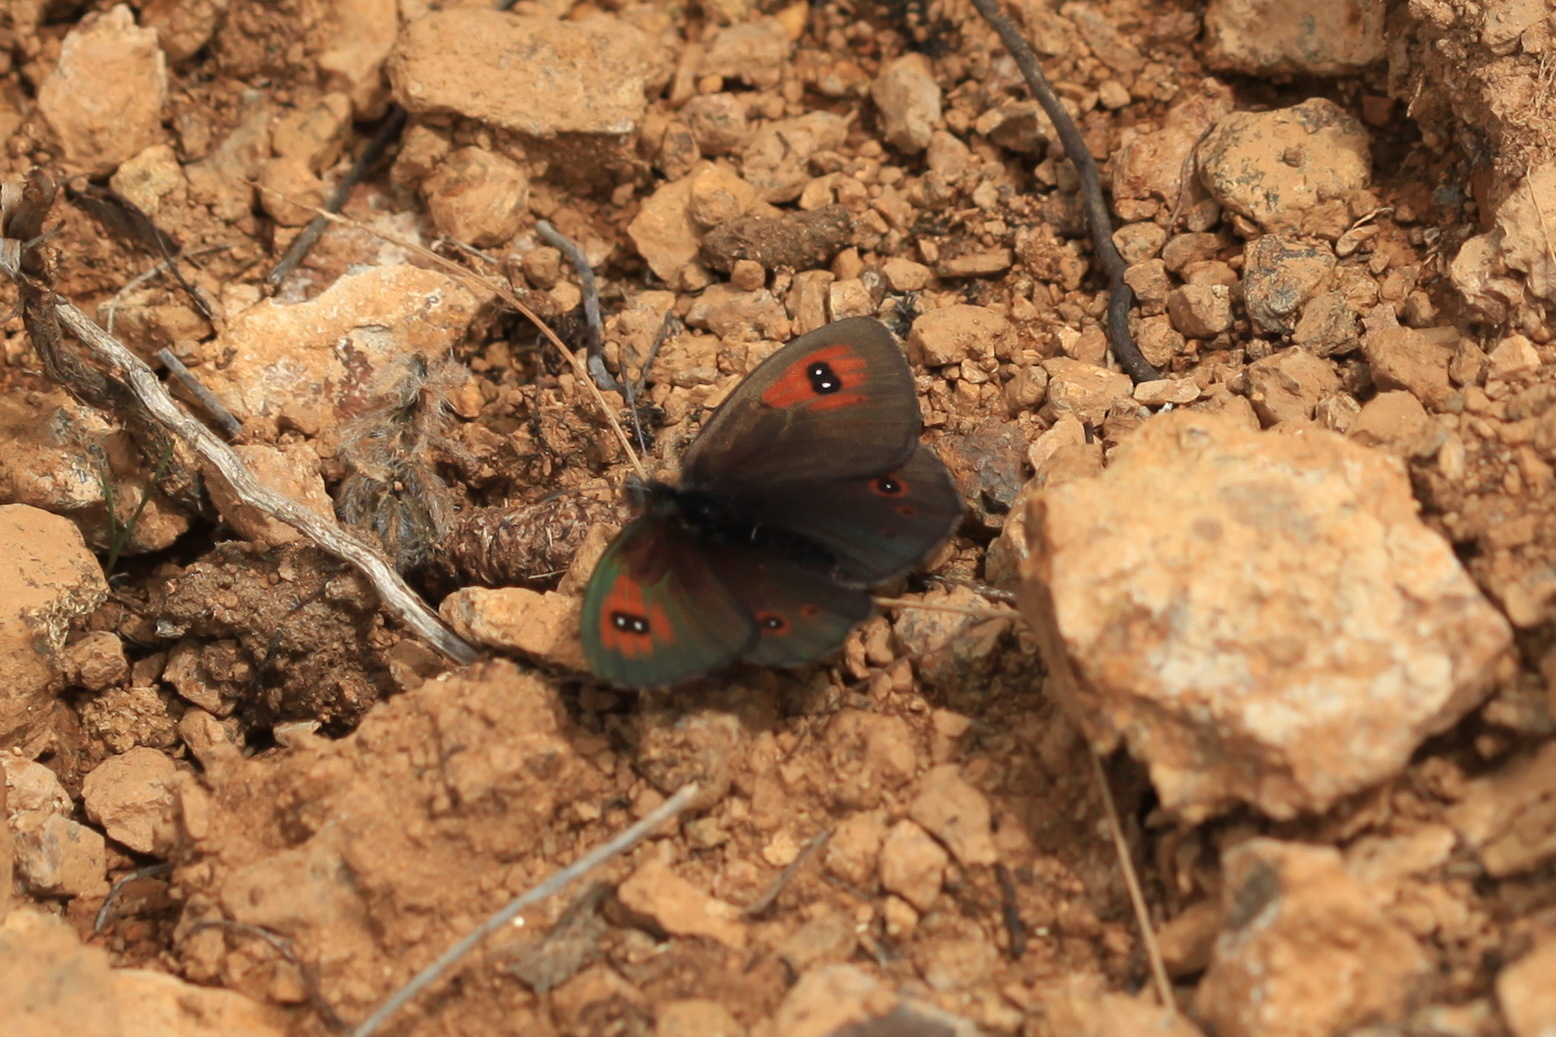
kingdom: Animalia
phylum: Arthropoda
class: Insecta
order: Lepidoptera
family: Nymphalidae
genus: Erebia
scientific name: Erebia tyndarus
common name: Swiss brassy ringlet
